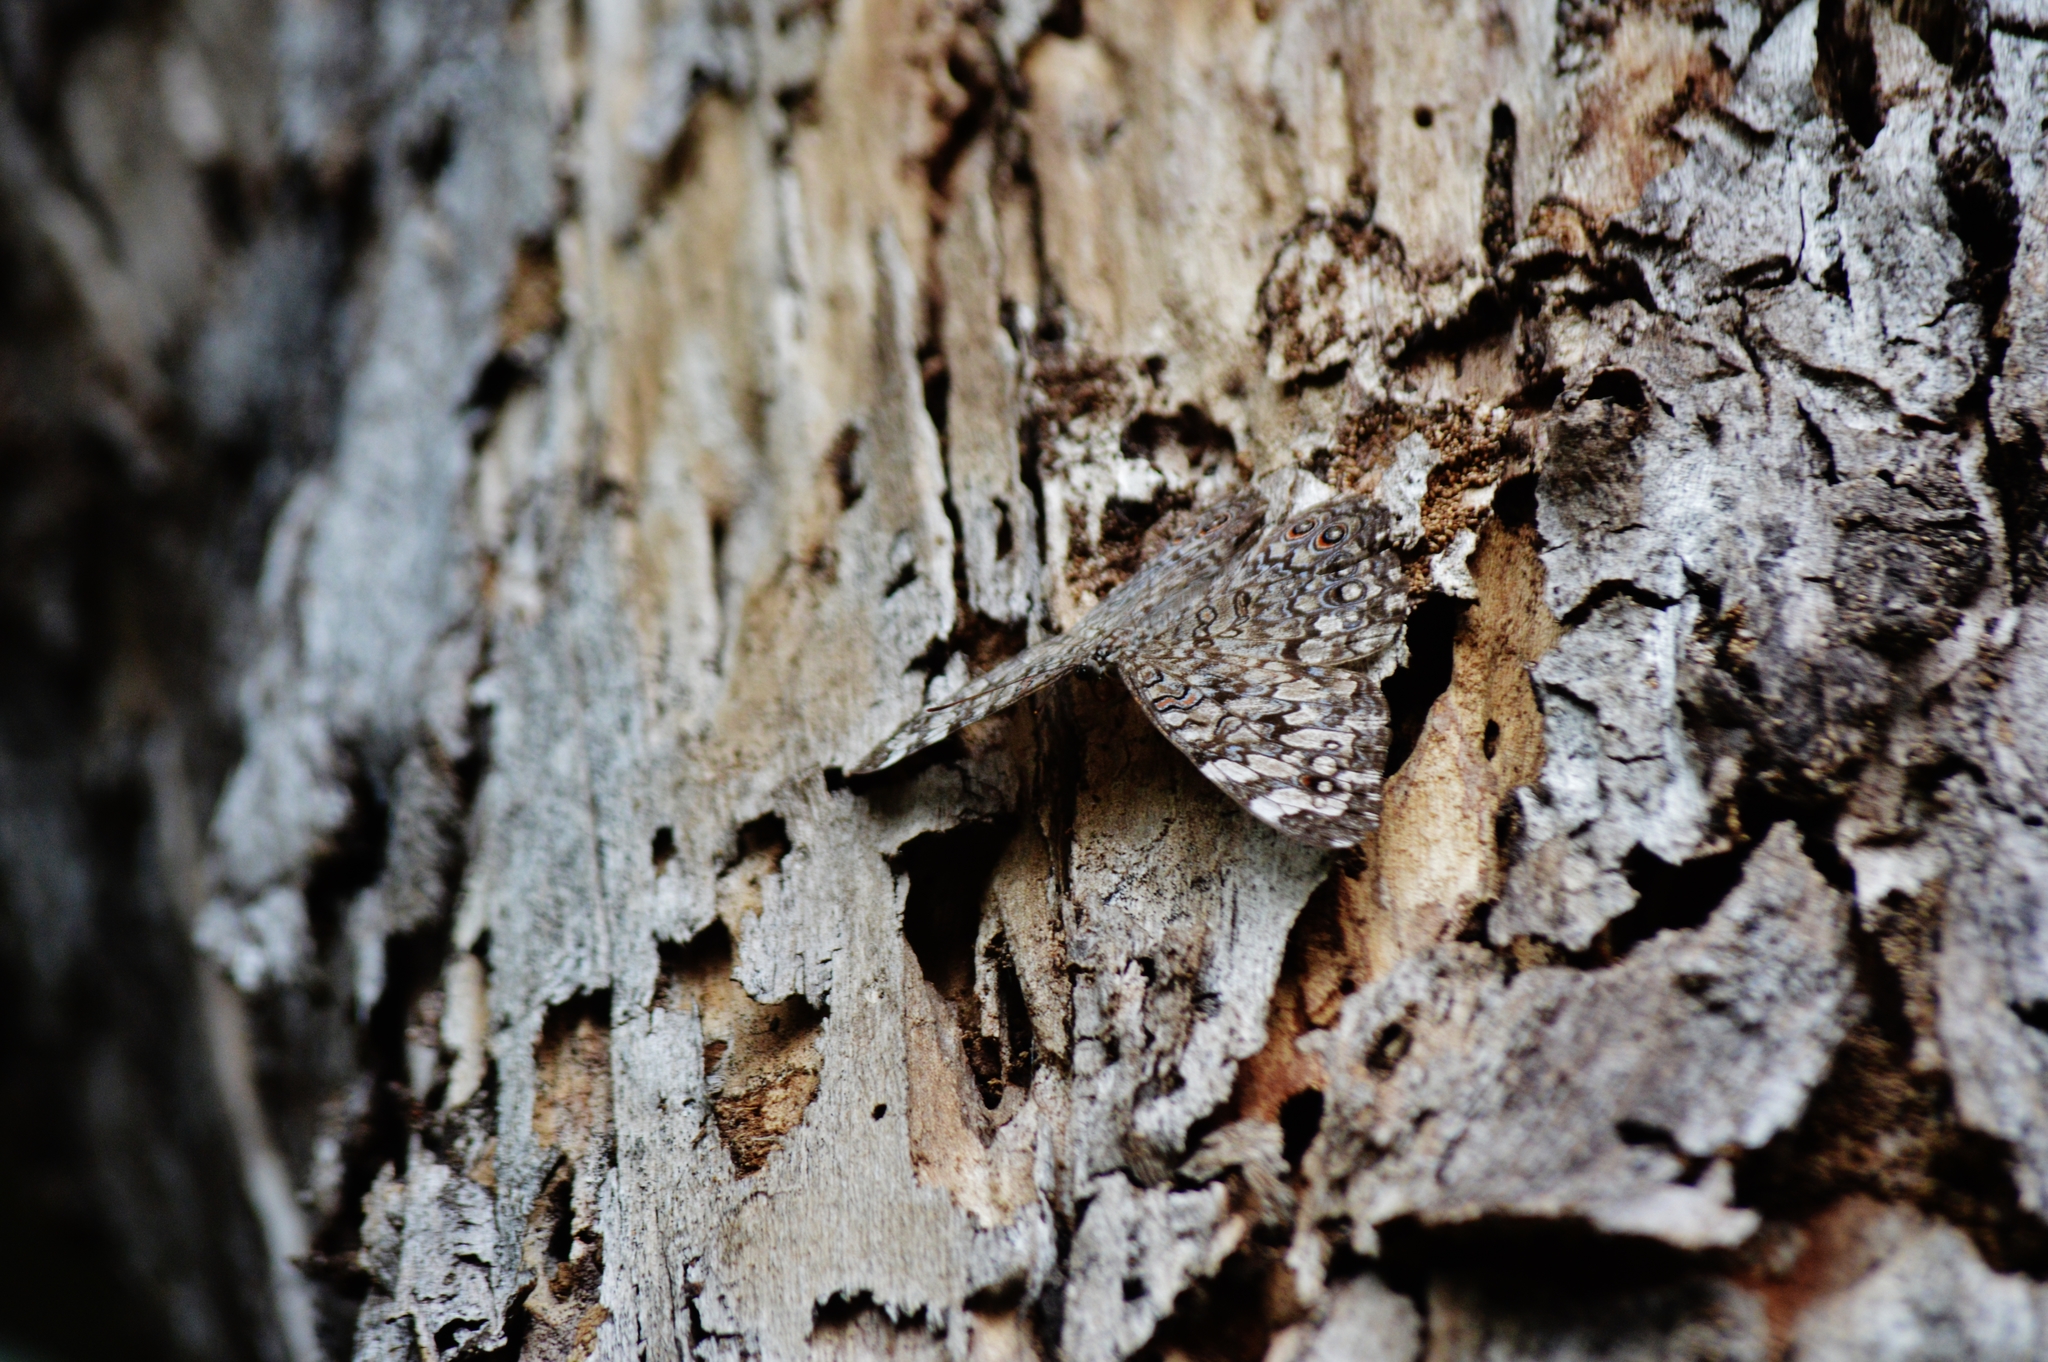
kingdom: Animalia
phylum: Arthropoda
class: Insecta
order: Lepidoptera
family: Nymphalidae
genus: Hamadryas
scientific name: Hamadryas februa
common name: Gray cracker
